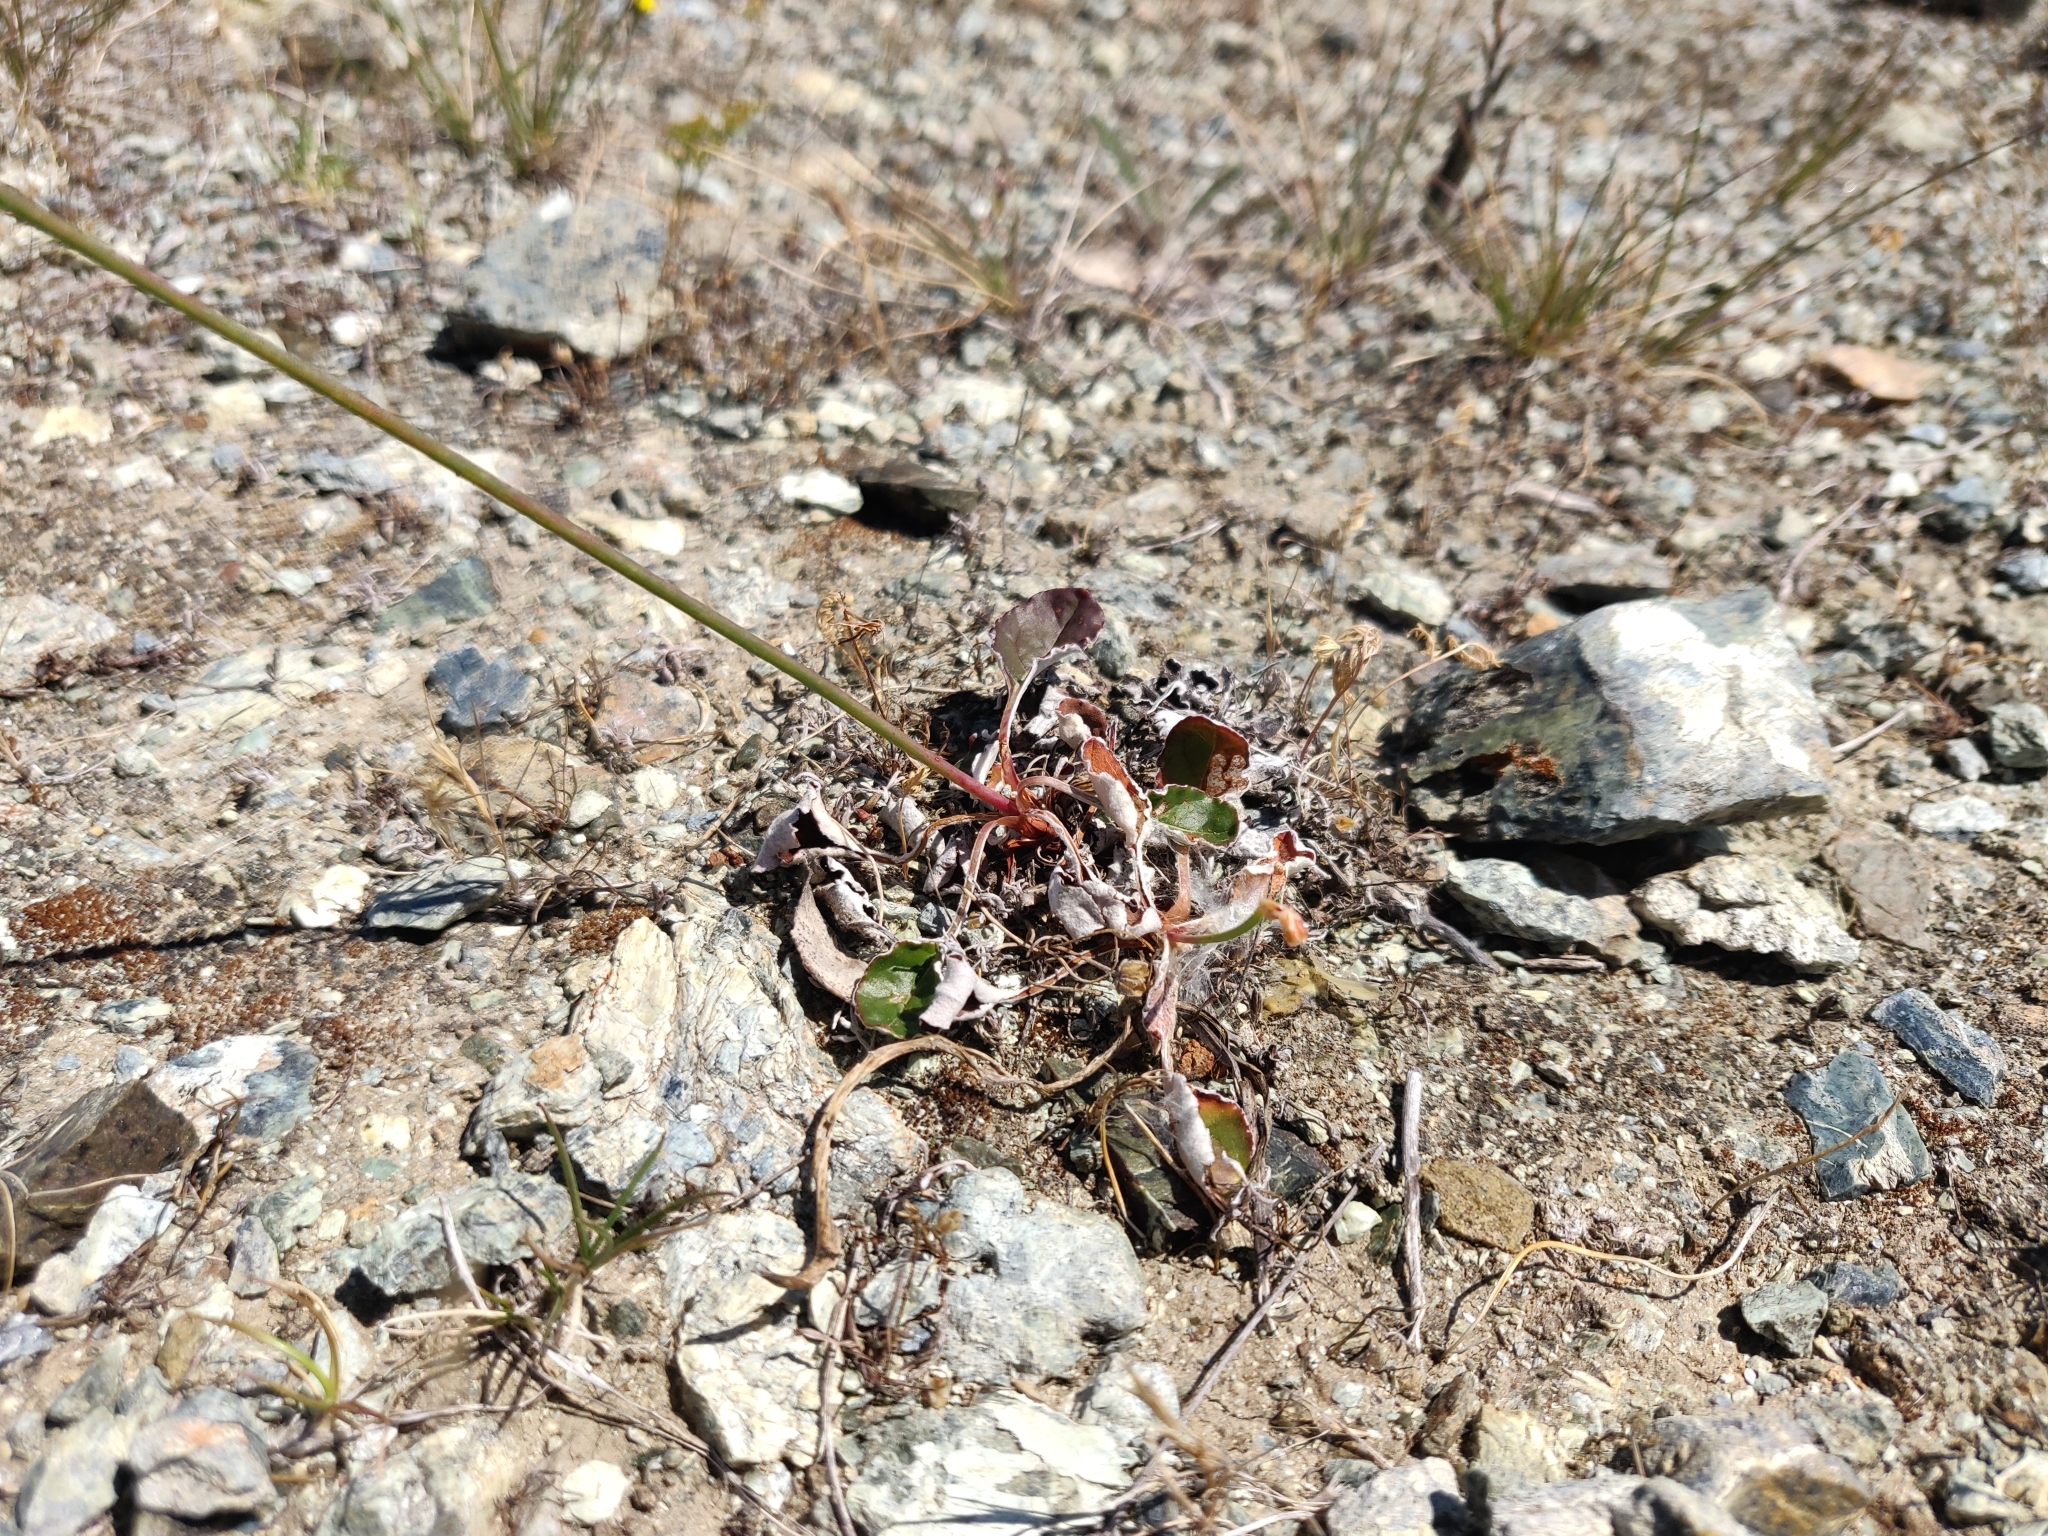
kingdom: Plantae
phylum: Tracheophyta
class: Magnoliopsida
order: Apiales
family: Apiaceae
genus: Lomatium
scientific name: Lomatium dasycarpum
